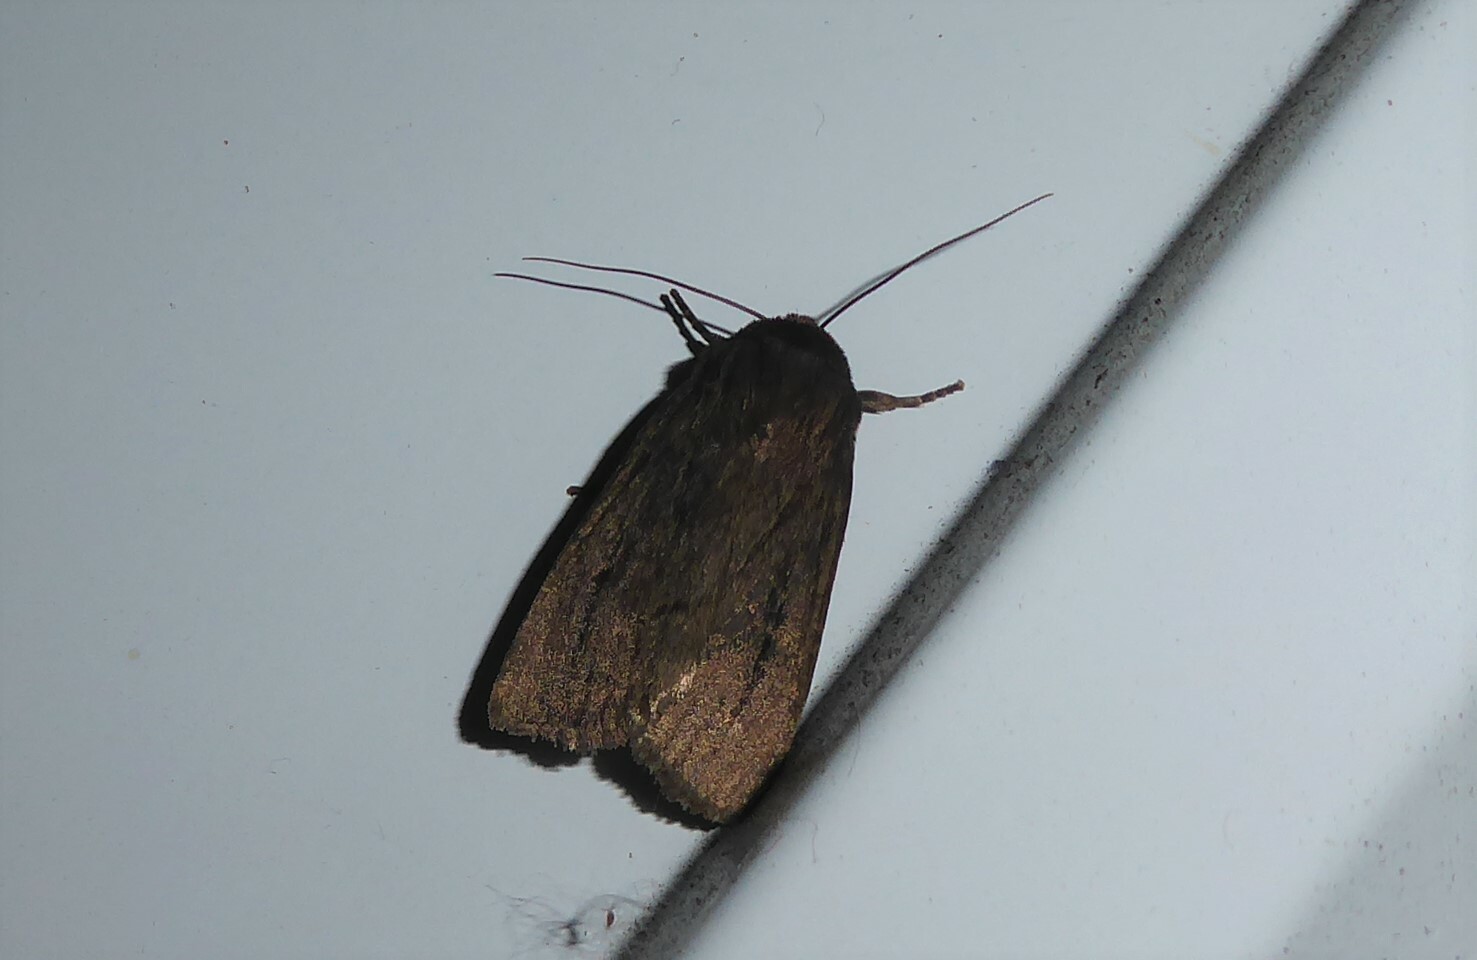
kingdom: Animalia
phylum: Arthropoda
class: Insecta
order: Lepidoptera
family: Noctuidae
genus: Bityla
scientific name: Bityla defigurata
